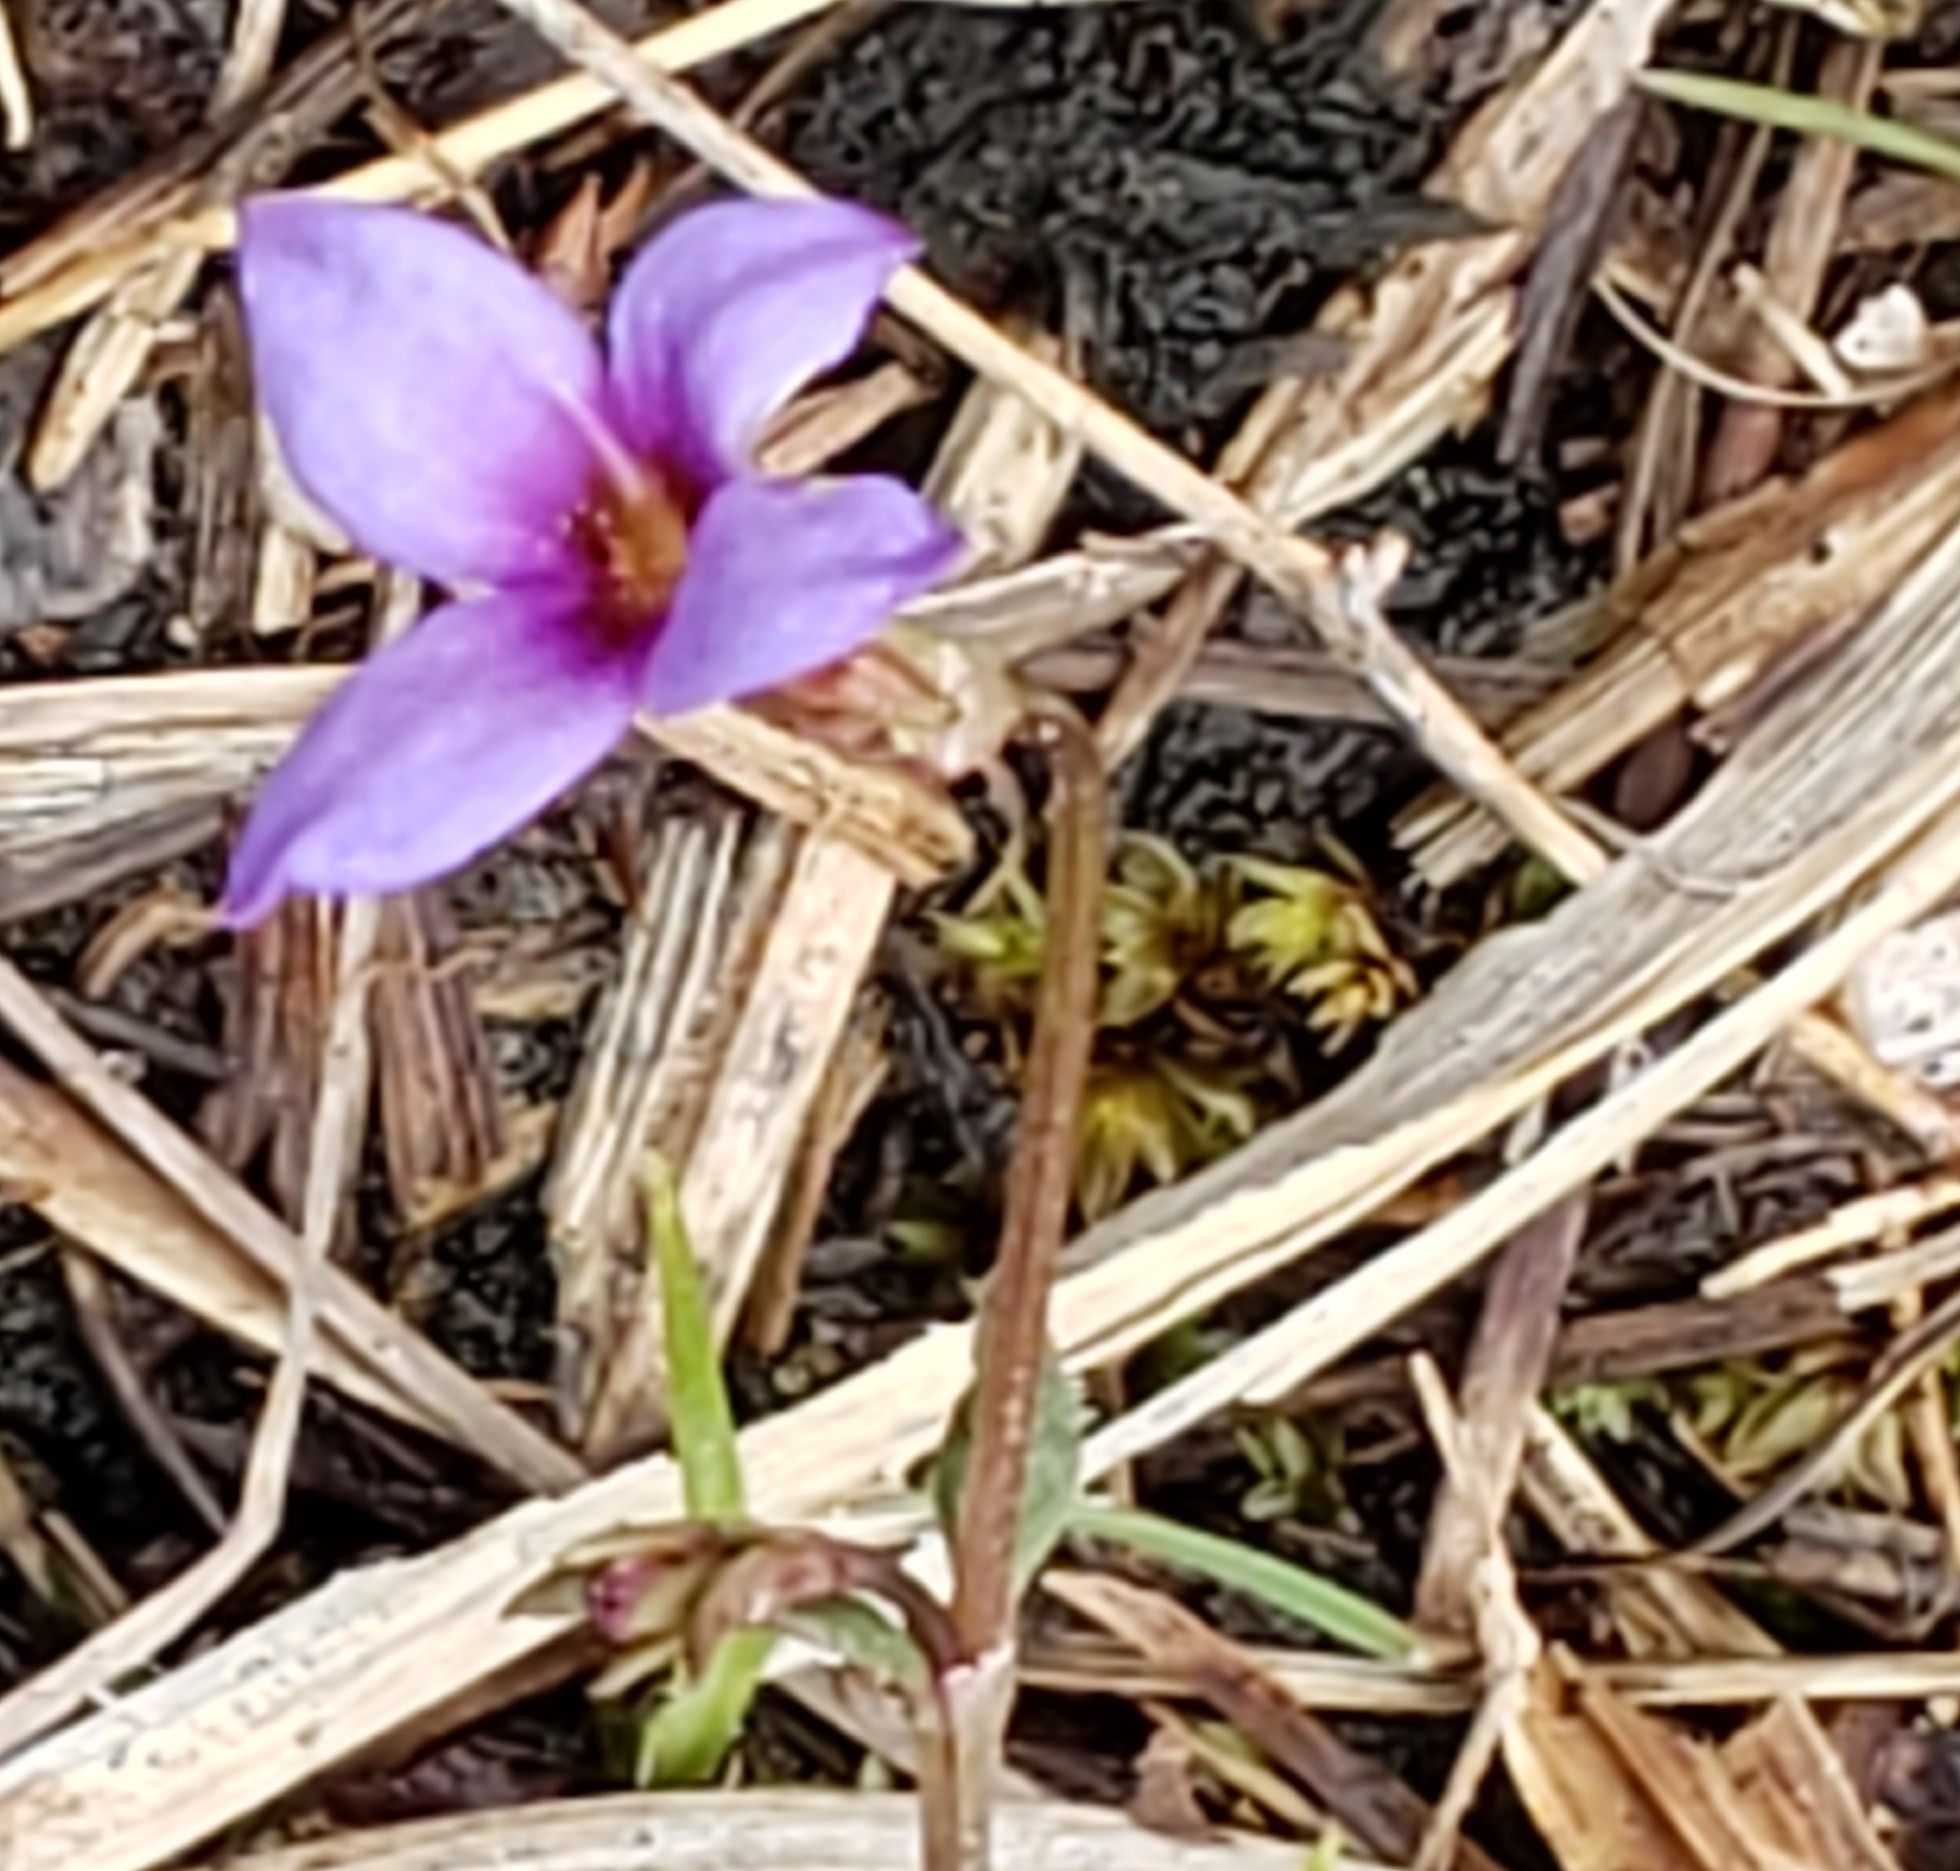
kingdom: Plantae
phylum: Tracheophyta
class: Magnoliopsida
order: Gentianales
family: Rubiaceae
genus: Houstonia
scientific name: Houstonia pusilla
